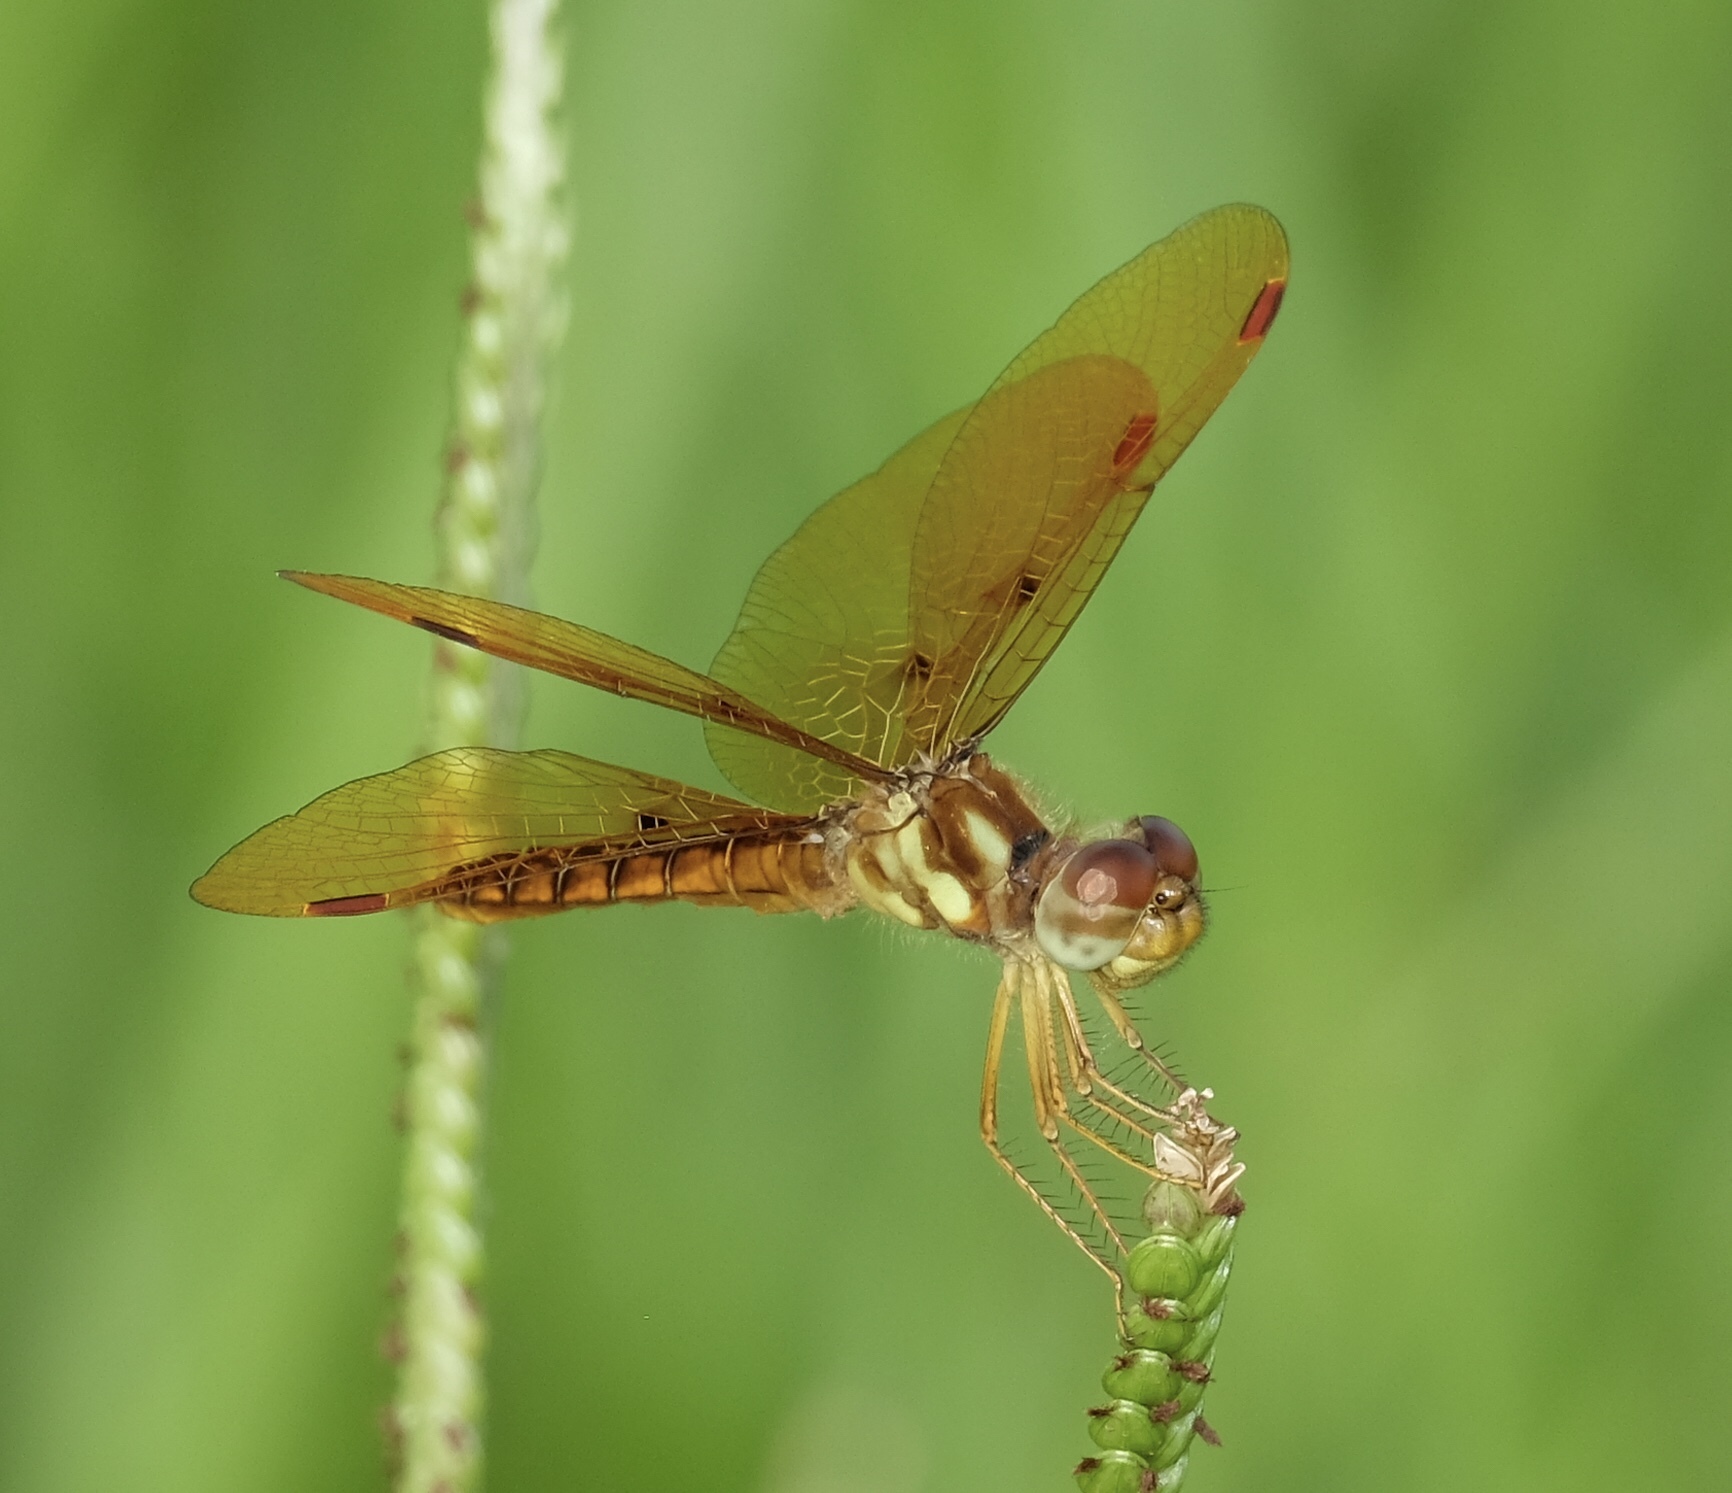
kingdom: Animalia
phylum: Arthropoda
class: Insecta
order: Odonata
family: Libellulidae
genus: Perithemis
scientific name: Perithemis tenera
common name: Eastern amberwing
